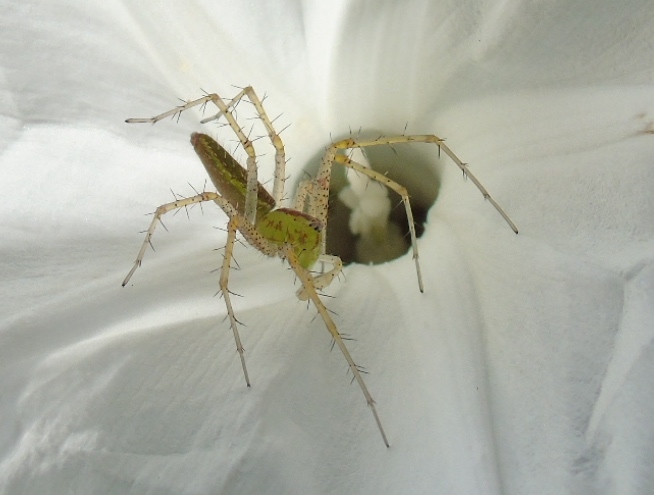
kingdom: Animalia
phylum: Arthropoda
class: Arachnida
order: Araneae
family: Oxyopidae
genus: Peucetia
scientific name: Peucetia
